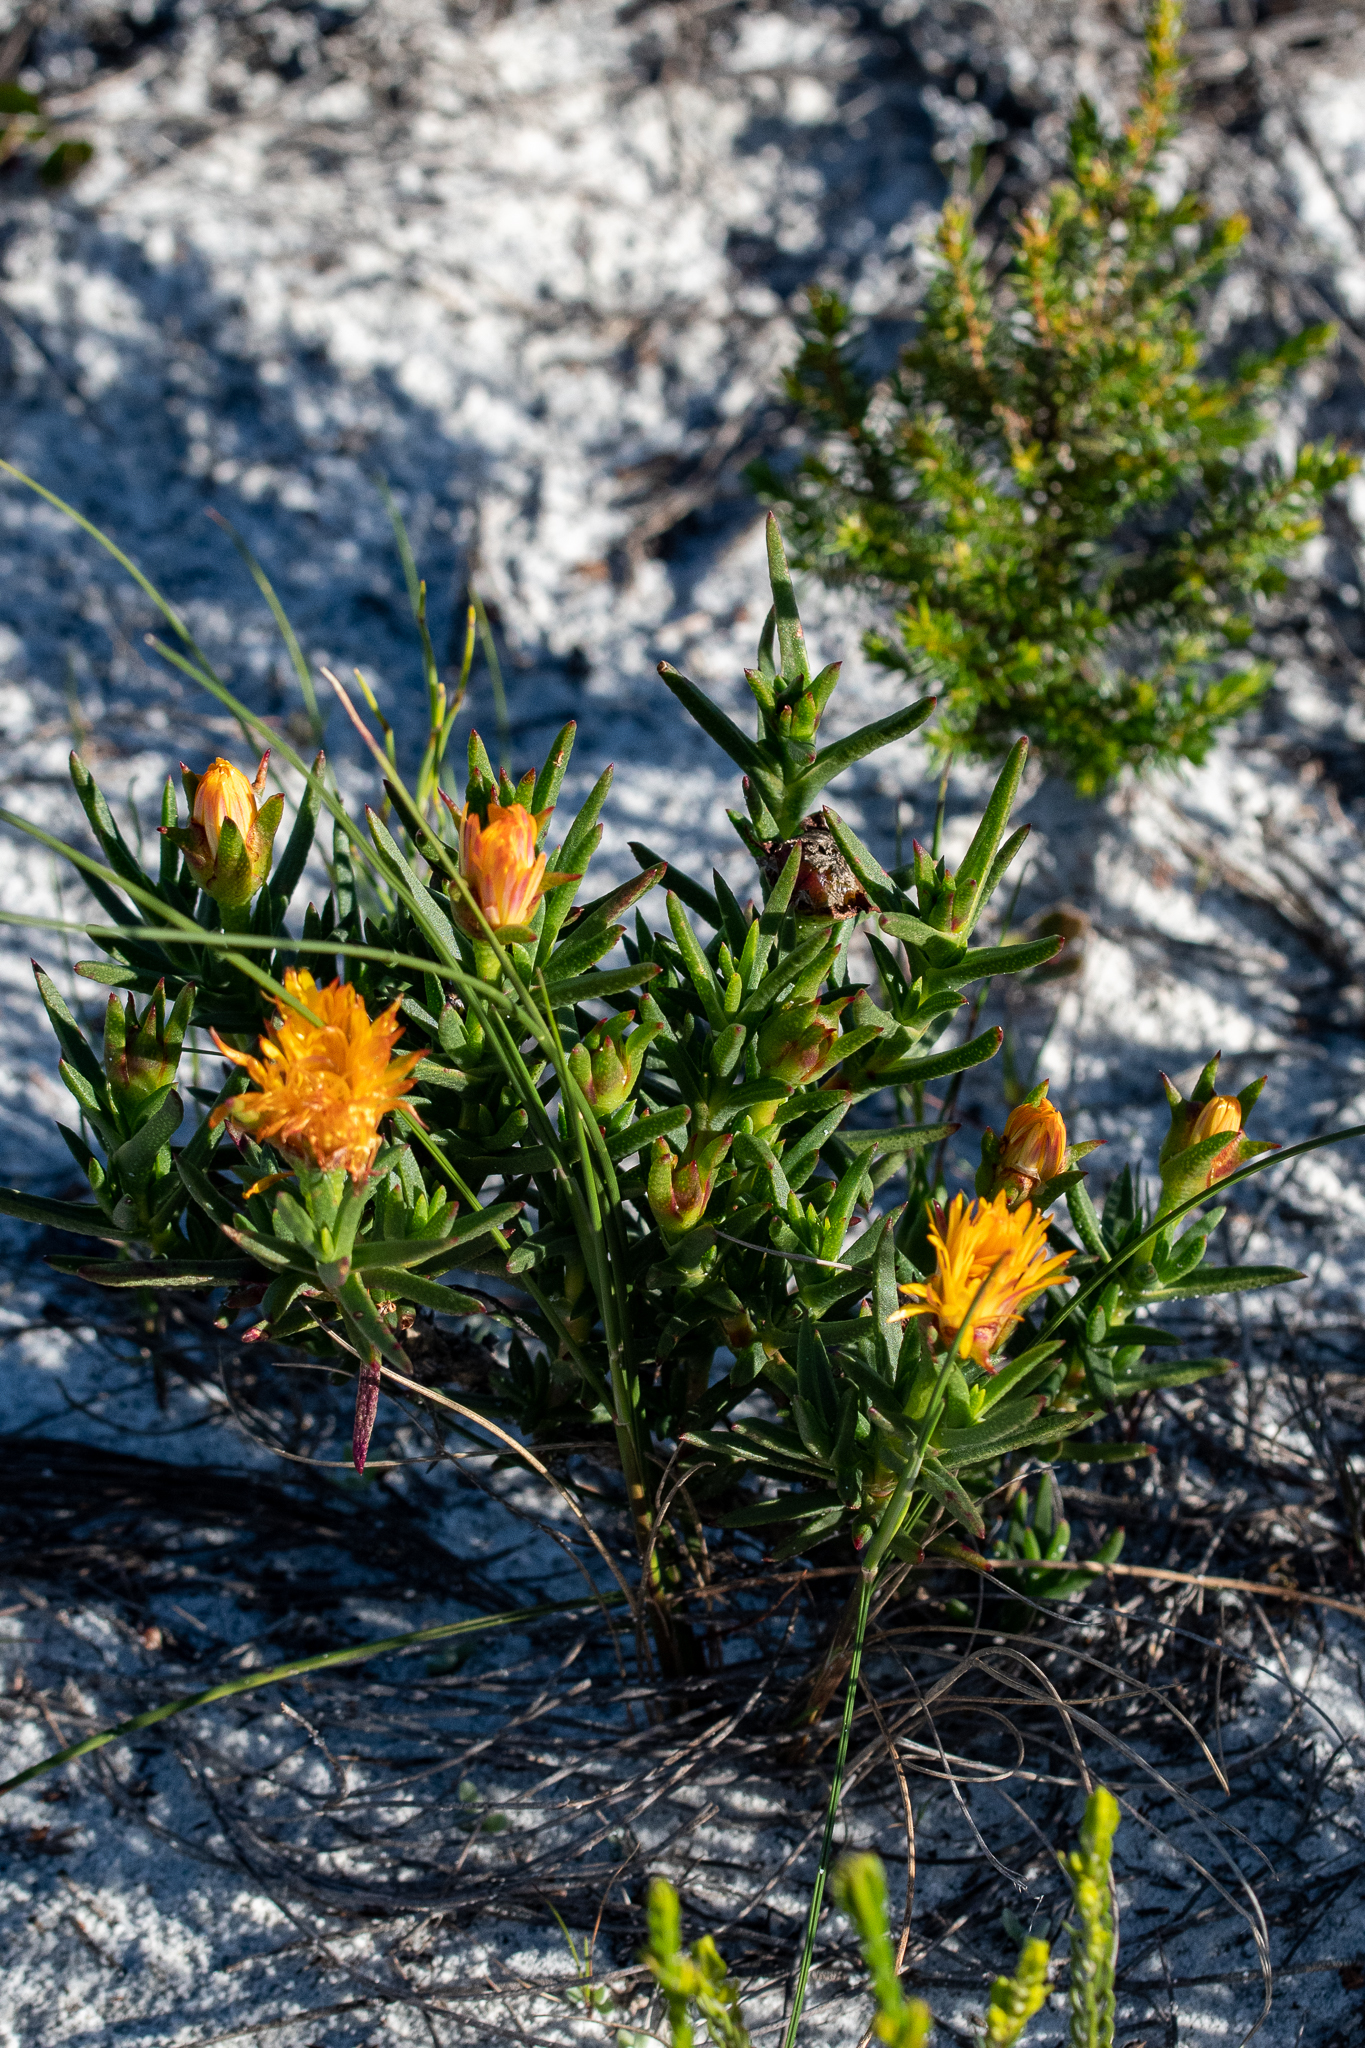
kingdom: Plantae
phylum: Tracheophyta
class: Magnoliopsida
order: Caryophyllales
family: Aizoaceae
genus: Lampranthus
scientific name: Lampranthus bicolor
